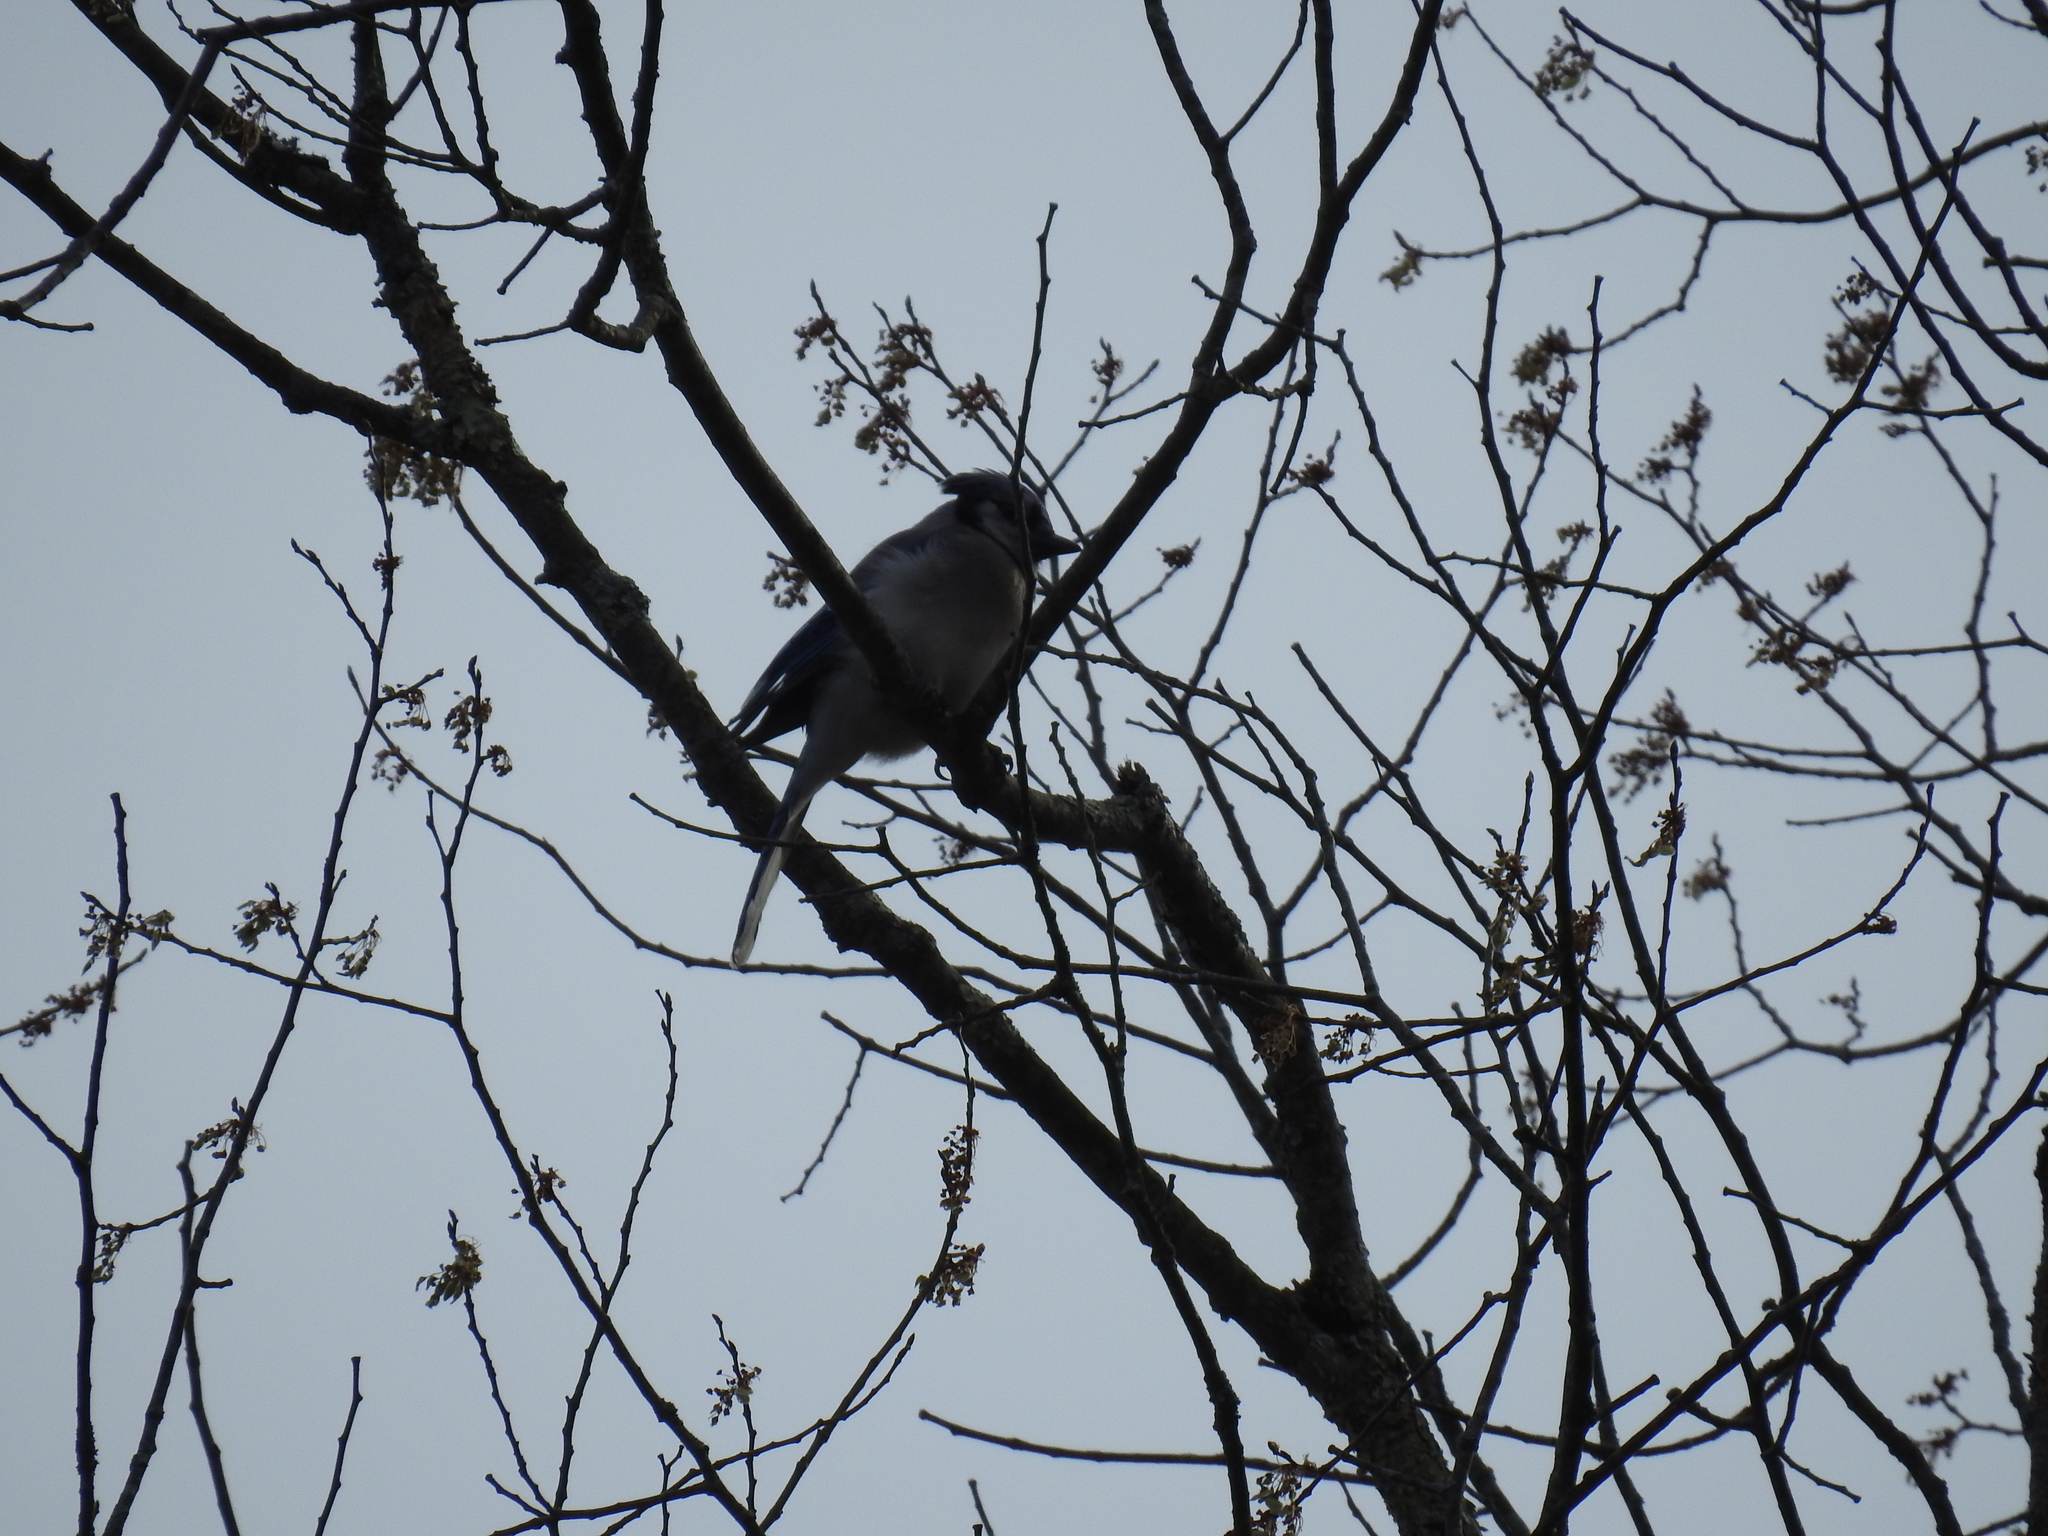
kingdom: Animalia
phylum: Chordata
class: Aves
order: Passeriformes
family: Corvidae
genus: Cyanocitta
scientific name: Cyanocitta cristata
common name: Blue jay
